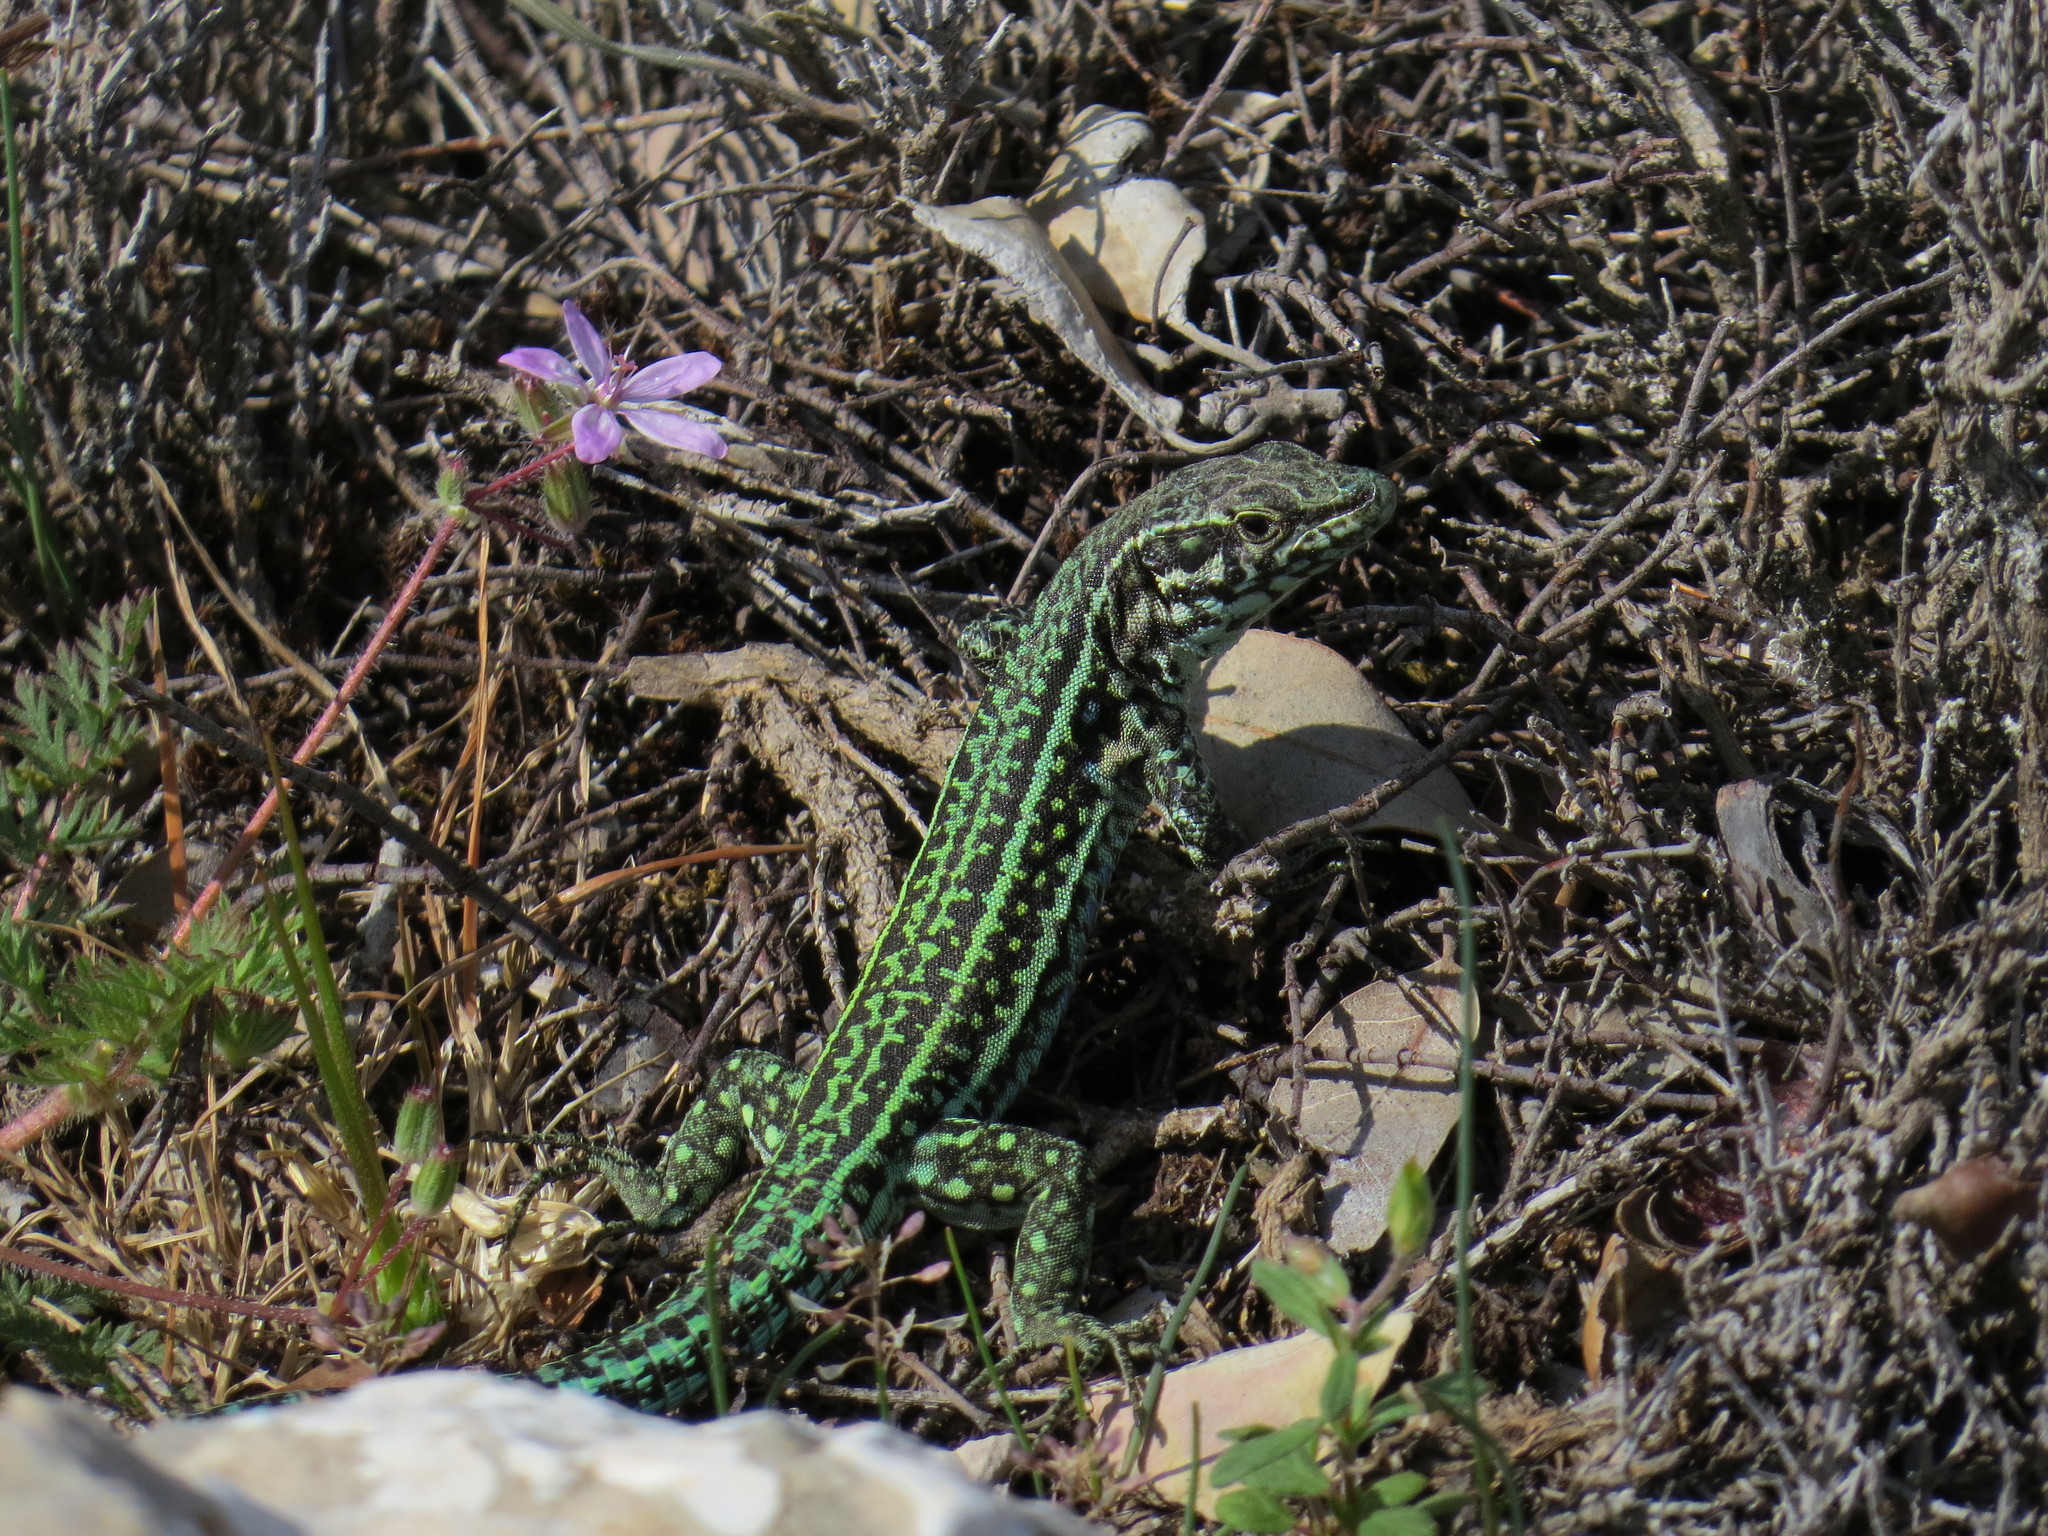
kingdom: Animalia
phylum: Chordata
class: Squamata
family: Lacertidae
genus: Podarcis
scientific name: Podarcis tiliguerta
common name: Tyrrhenian wall lizard
